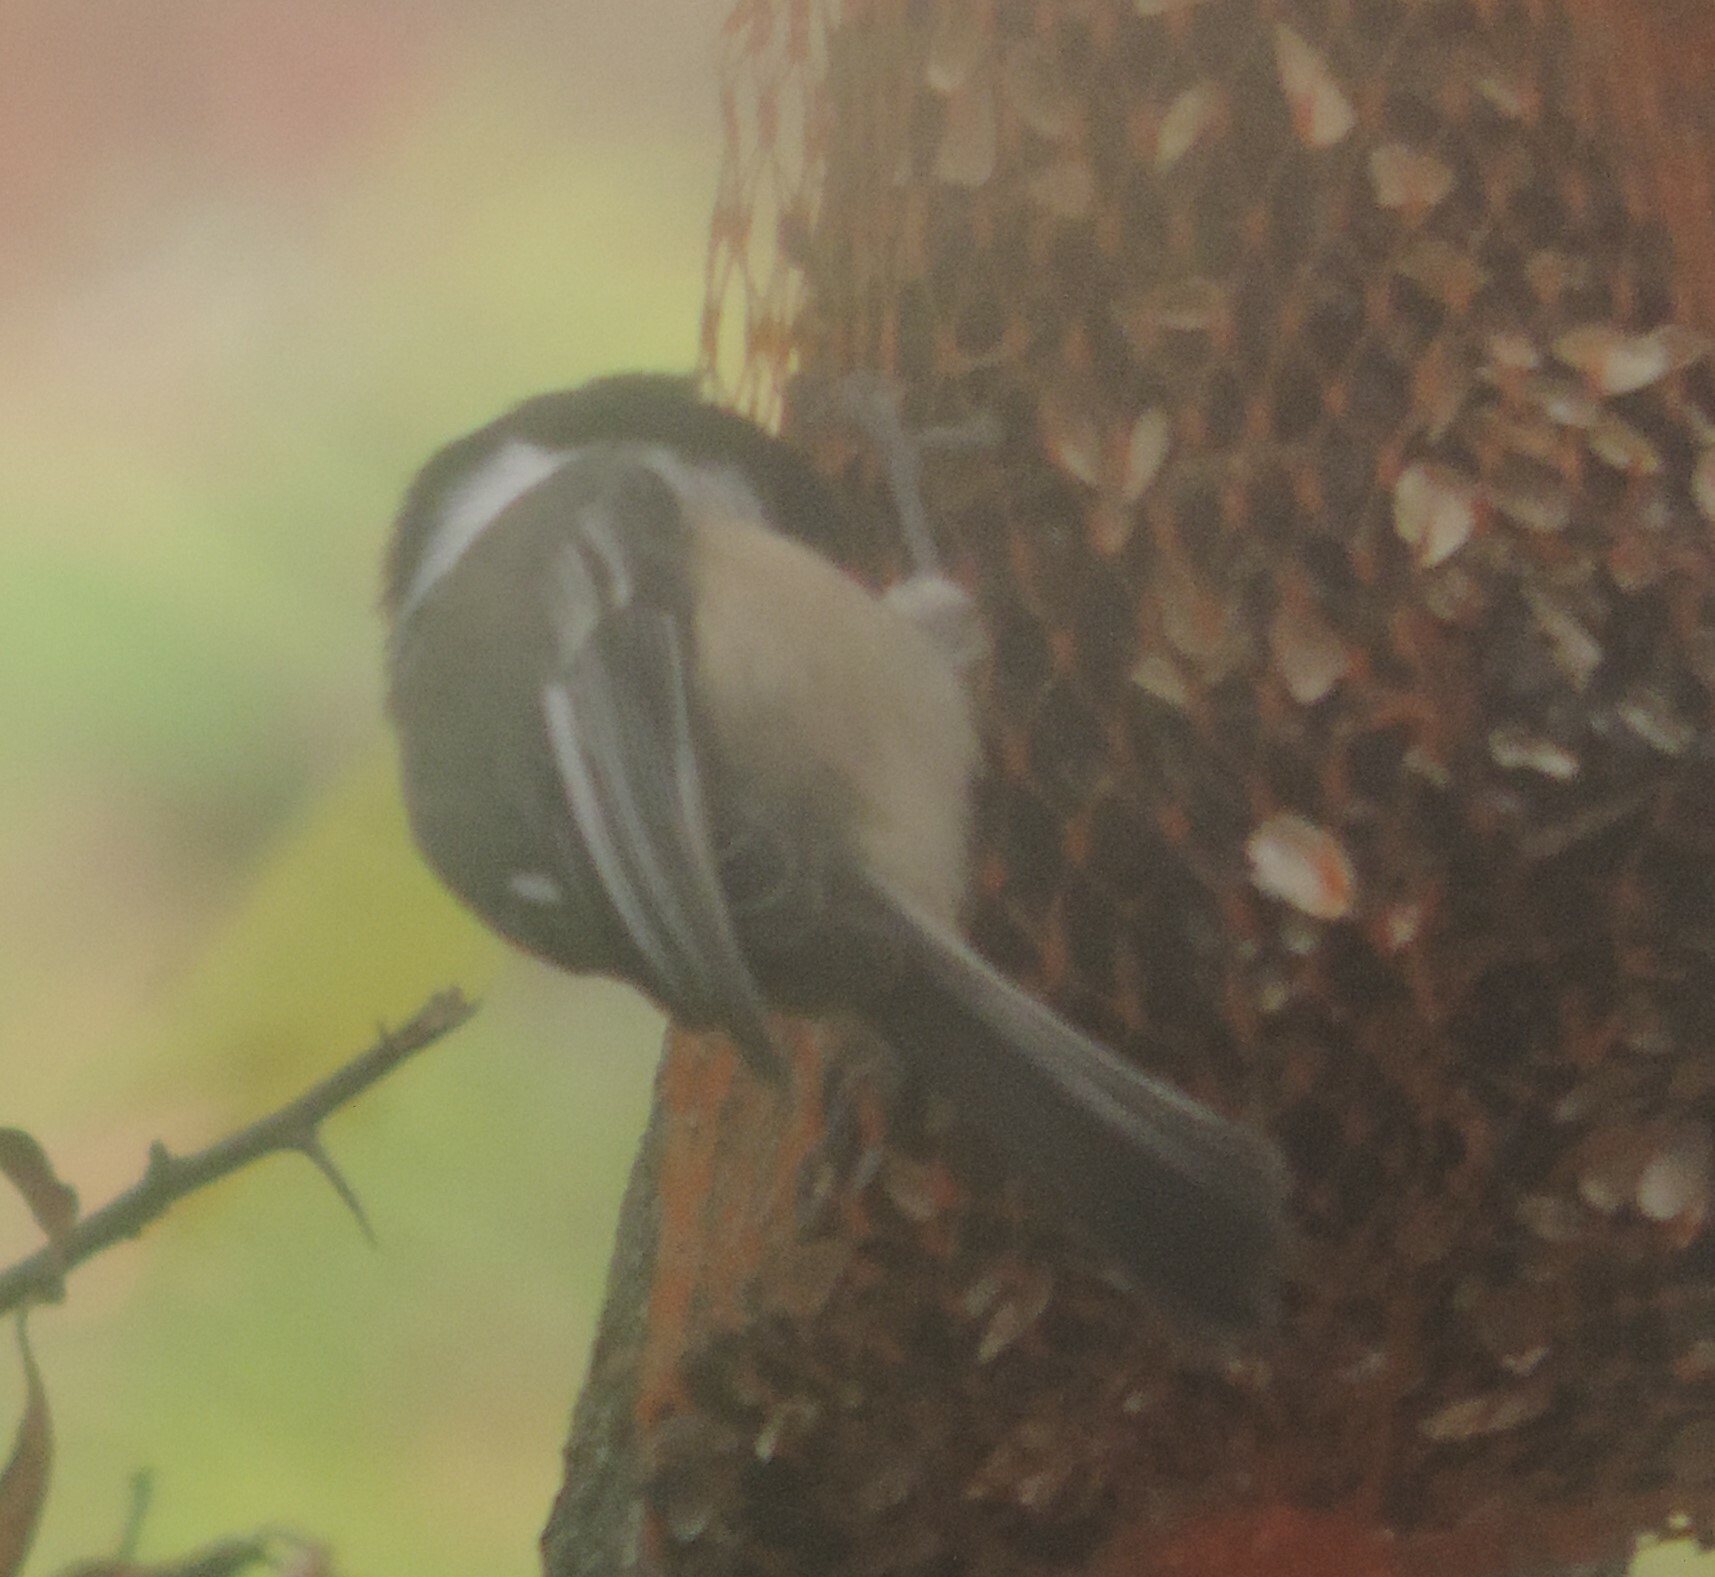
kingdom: Animalia
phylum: Chordata
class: Aves
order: Passeriformes
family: Paridae
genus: Poecile
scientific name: Poecile atricapillus
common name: Black-capped chickadee
